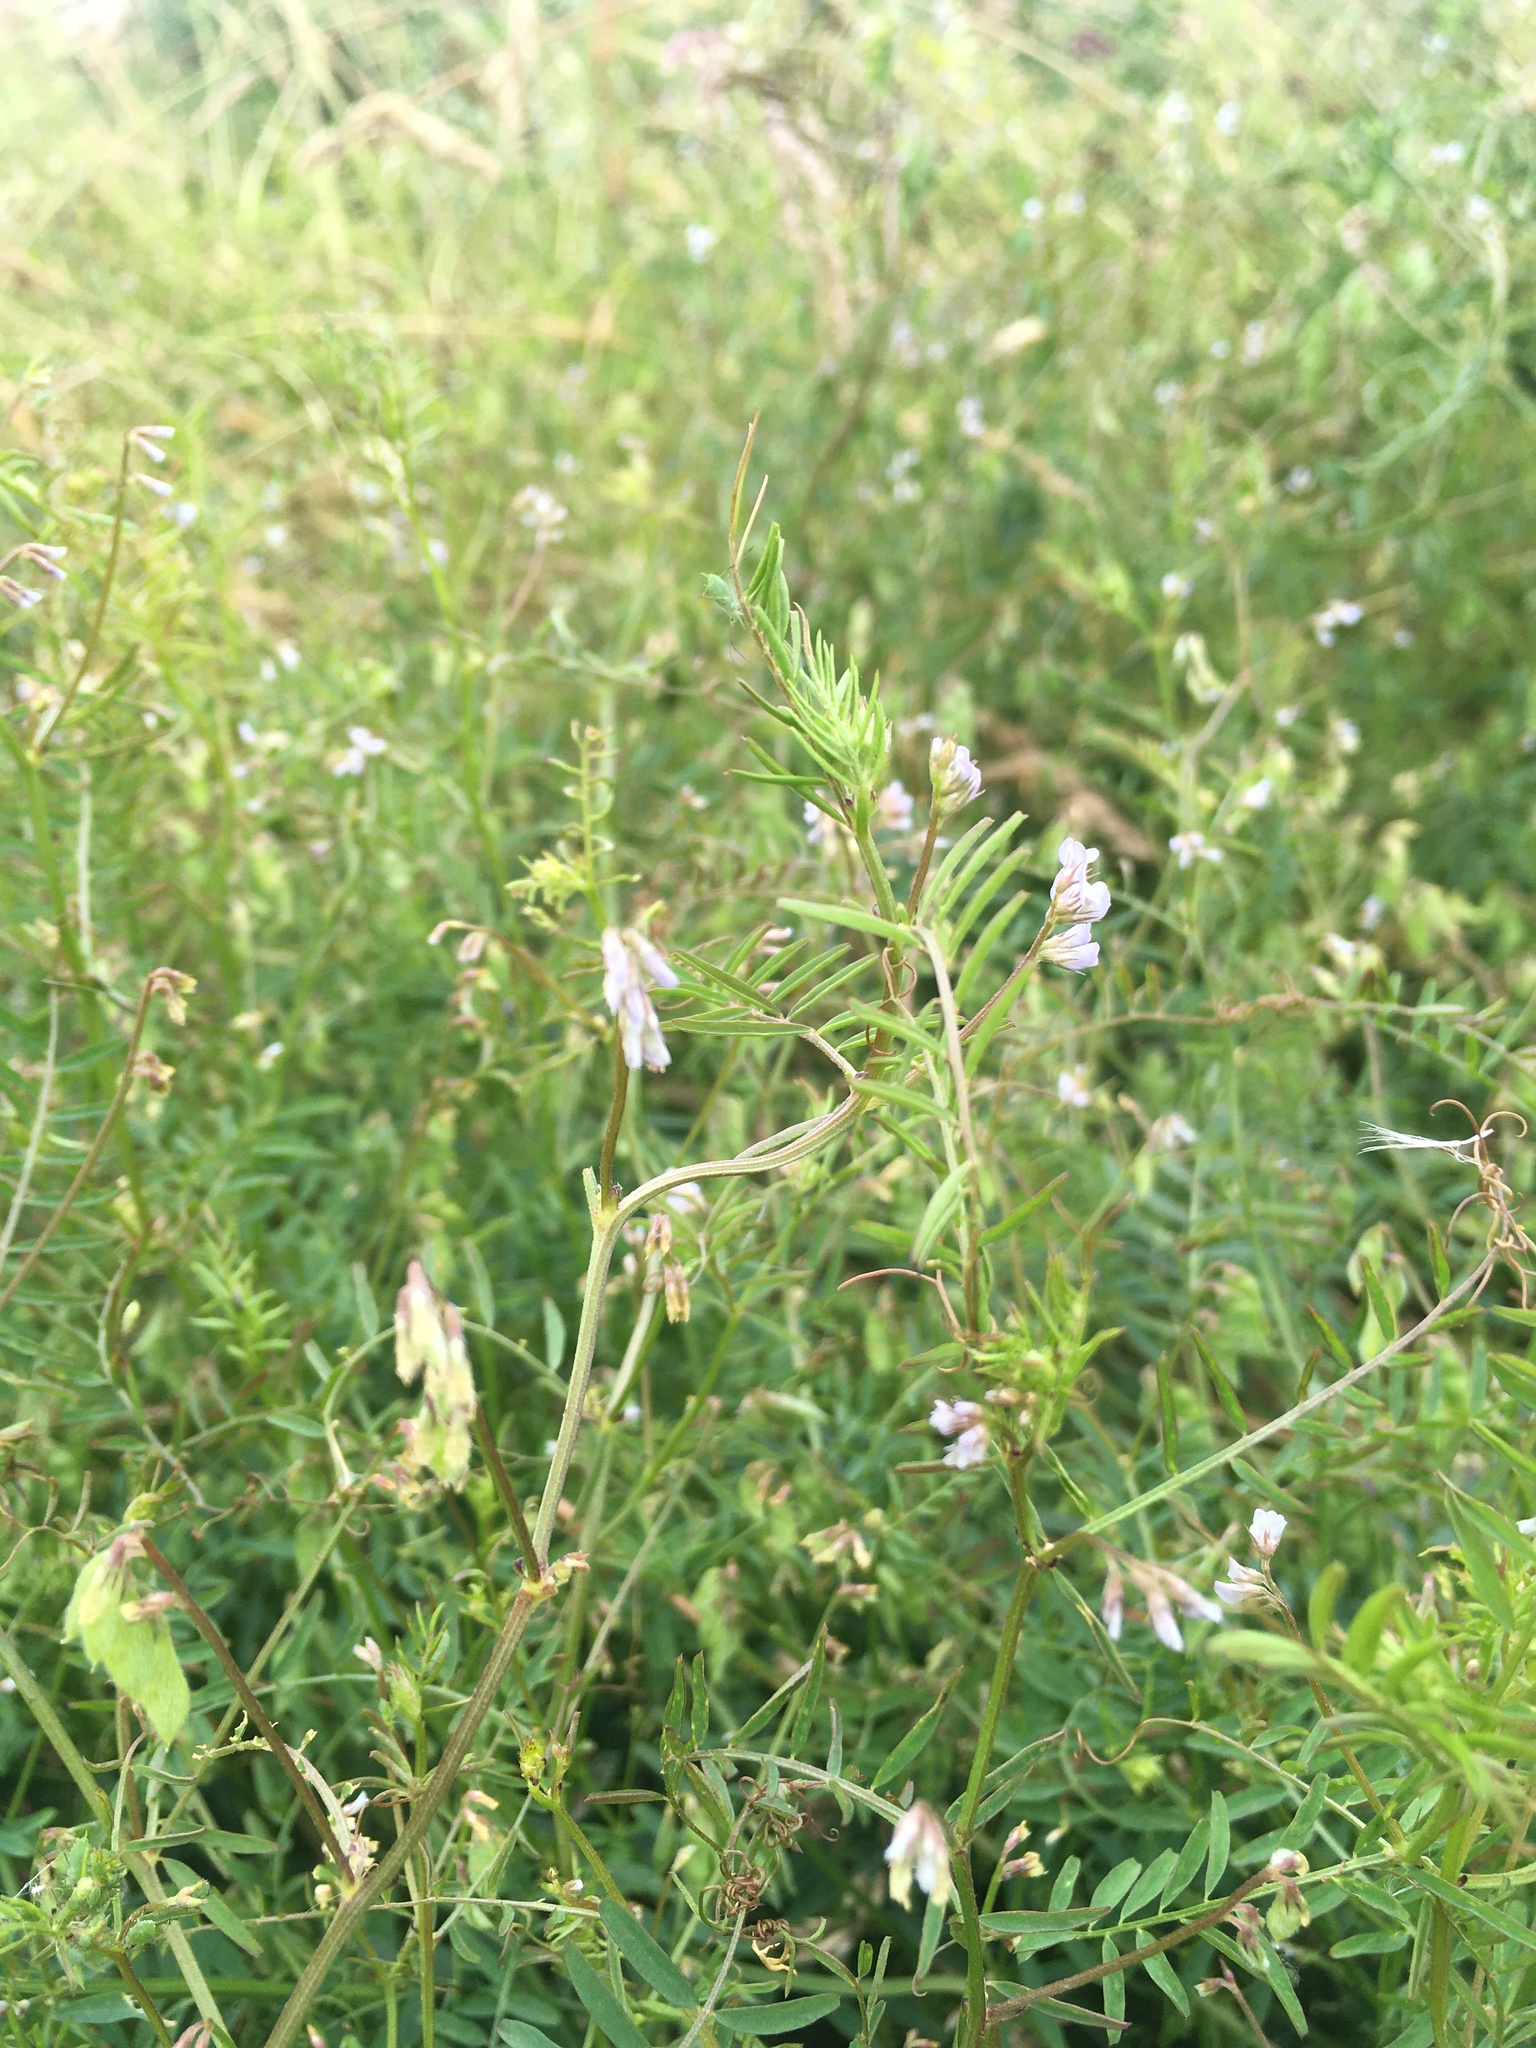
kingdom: Plantae
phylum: Tracheophyta
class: Magnoliopsida
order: Fabales
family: Fabaceae
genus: Vicia
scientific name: Vicia hirsuta
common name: Tiny vetch
